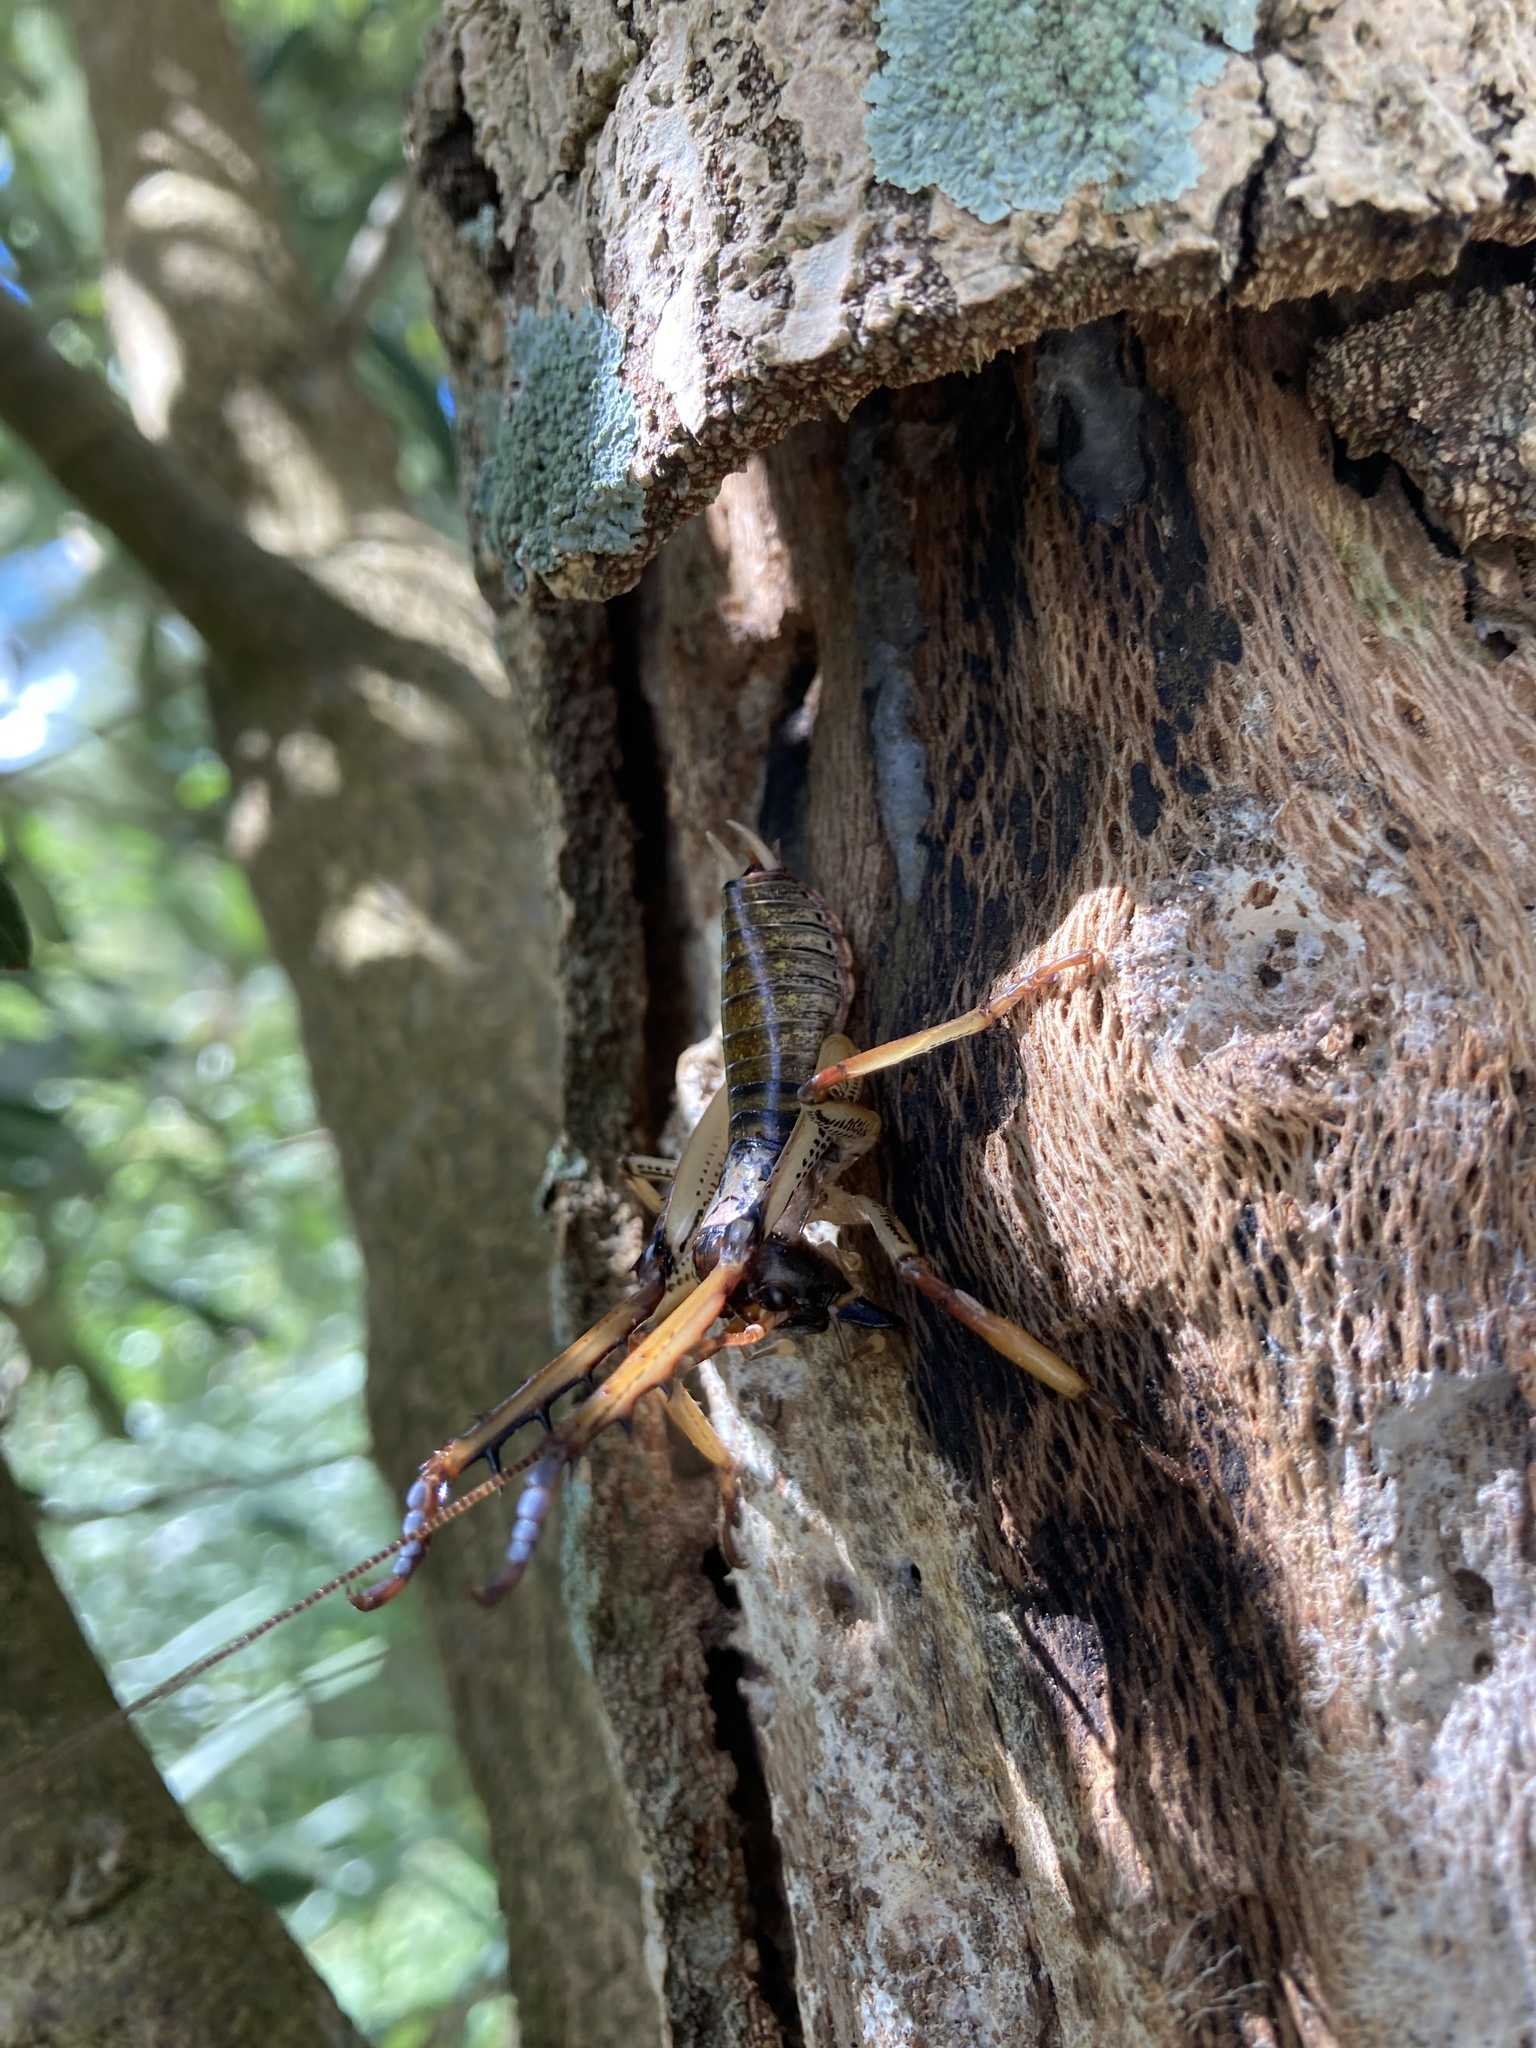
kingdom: Animalia
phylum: Arthropoda
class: Insecta
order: Orthoptera
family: Anostostomatidae
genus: Hemideina
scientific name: Hemideina thoracica
